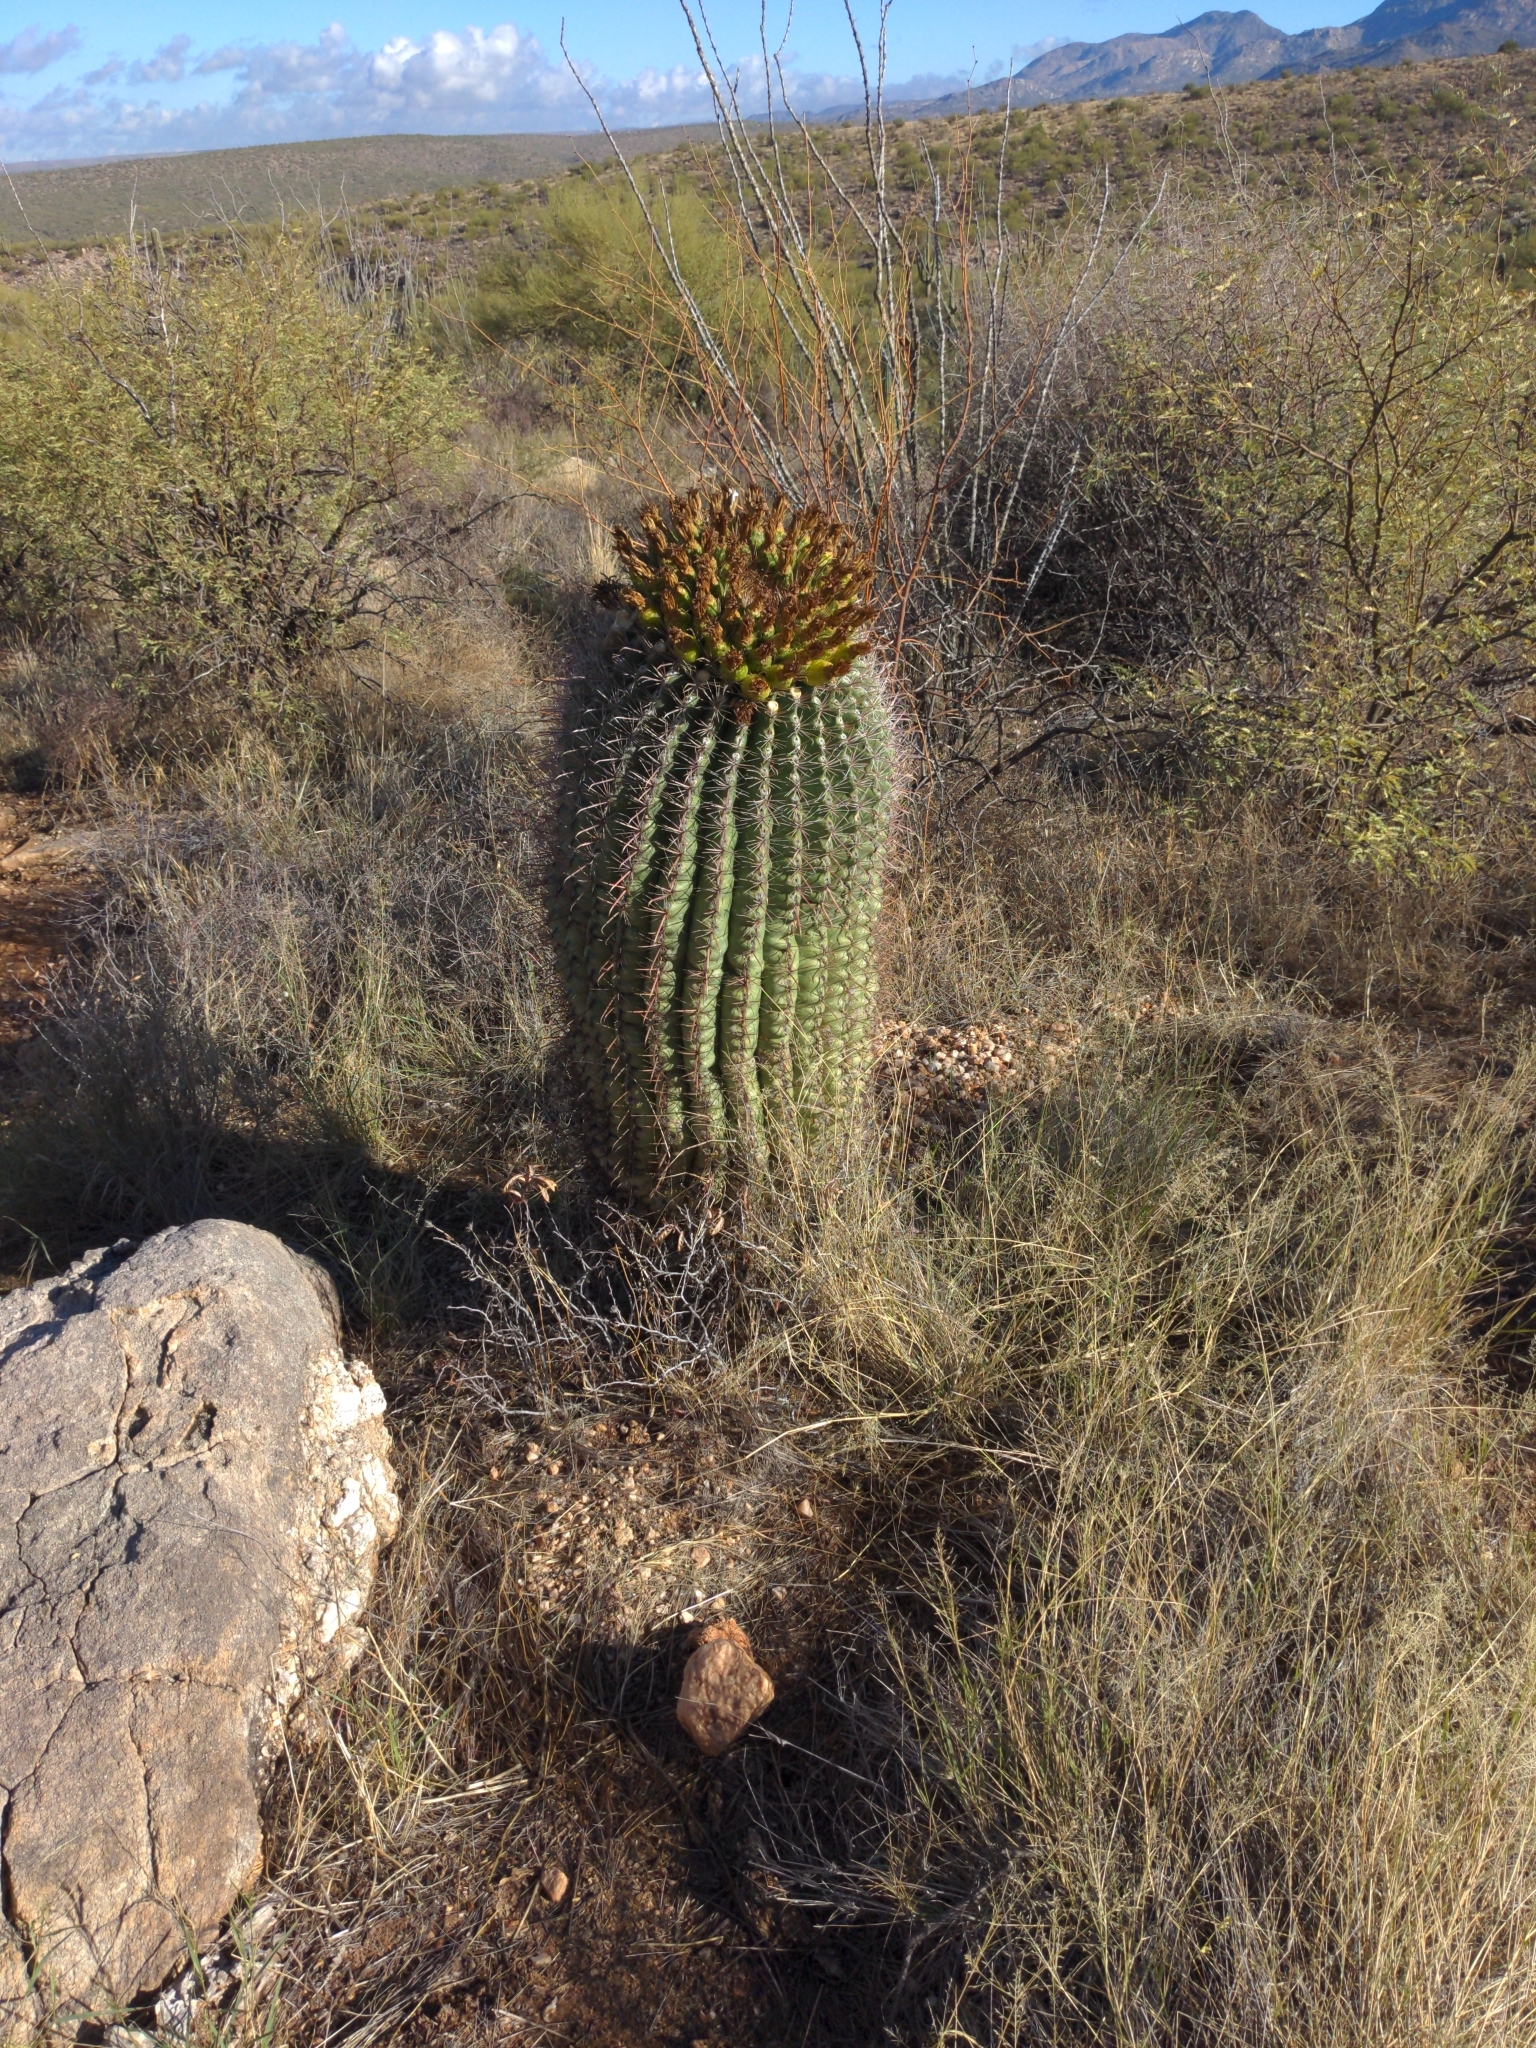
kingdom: Plantae
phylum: Tracheophyta
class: Magnoliopsida
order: Caryophyllales
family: Cactaceae
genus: Ferocactus
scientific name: Ferocactus wislizeni
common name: Candy barrel cactus
